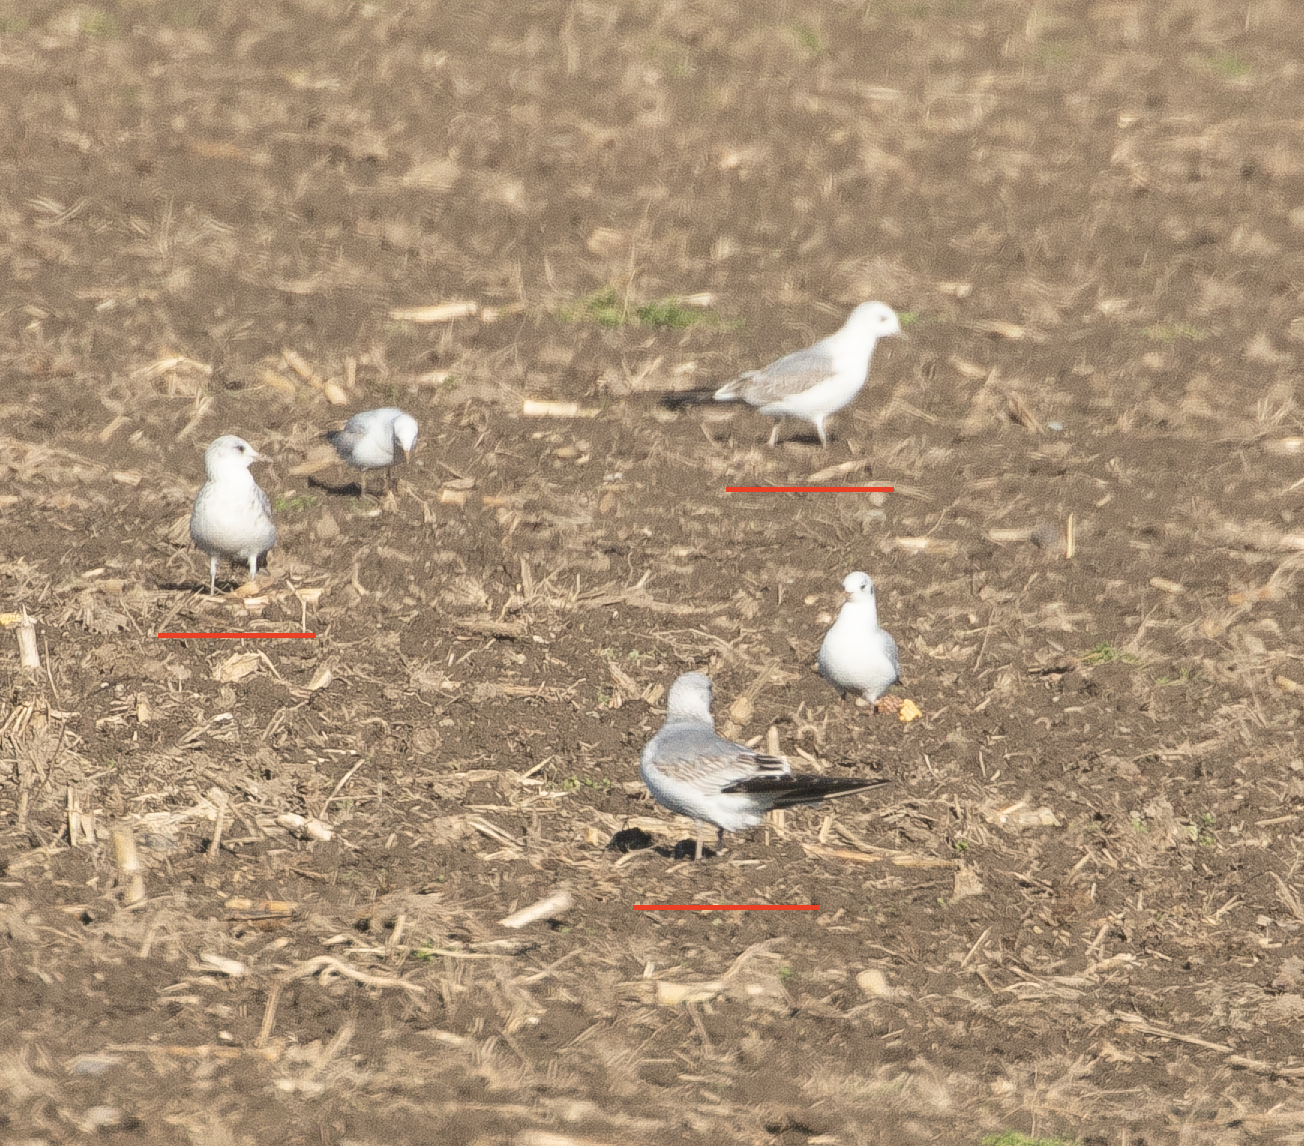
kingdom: Animalia
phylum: Chordata
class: Aves
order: Charadriiformes
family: Laridae
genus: Larus
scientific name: Larus canus
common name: Mew gull
